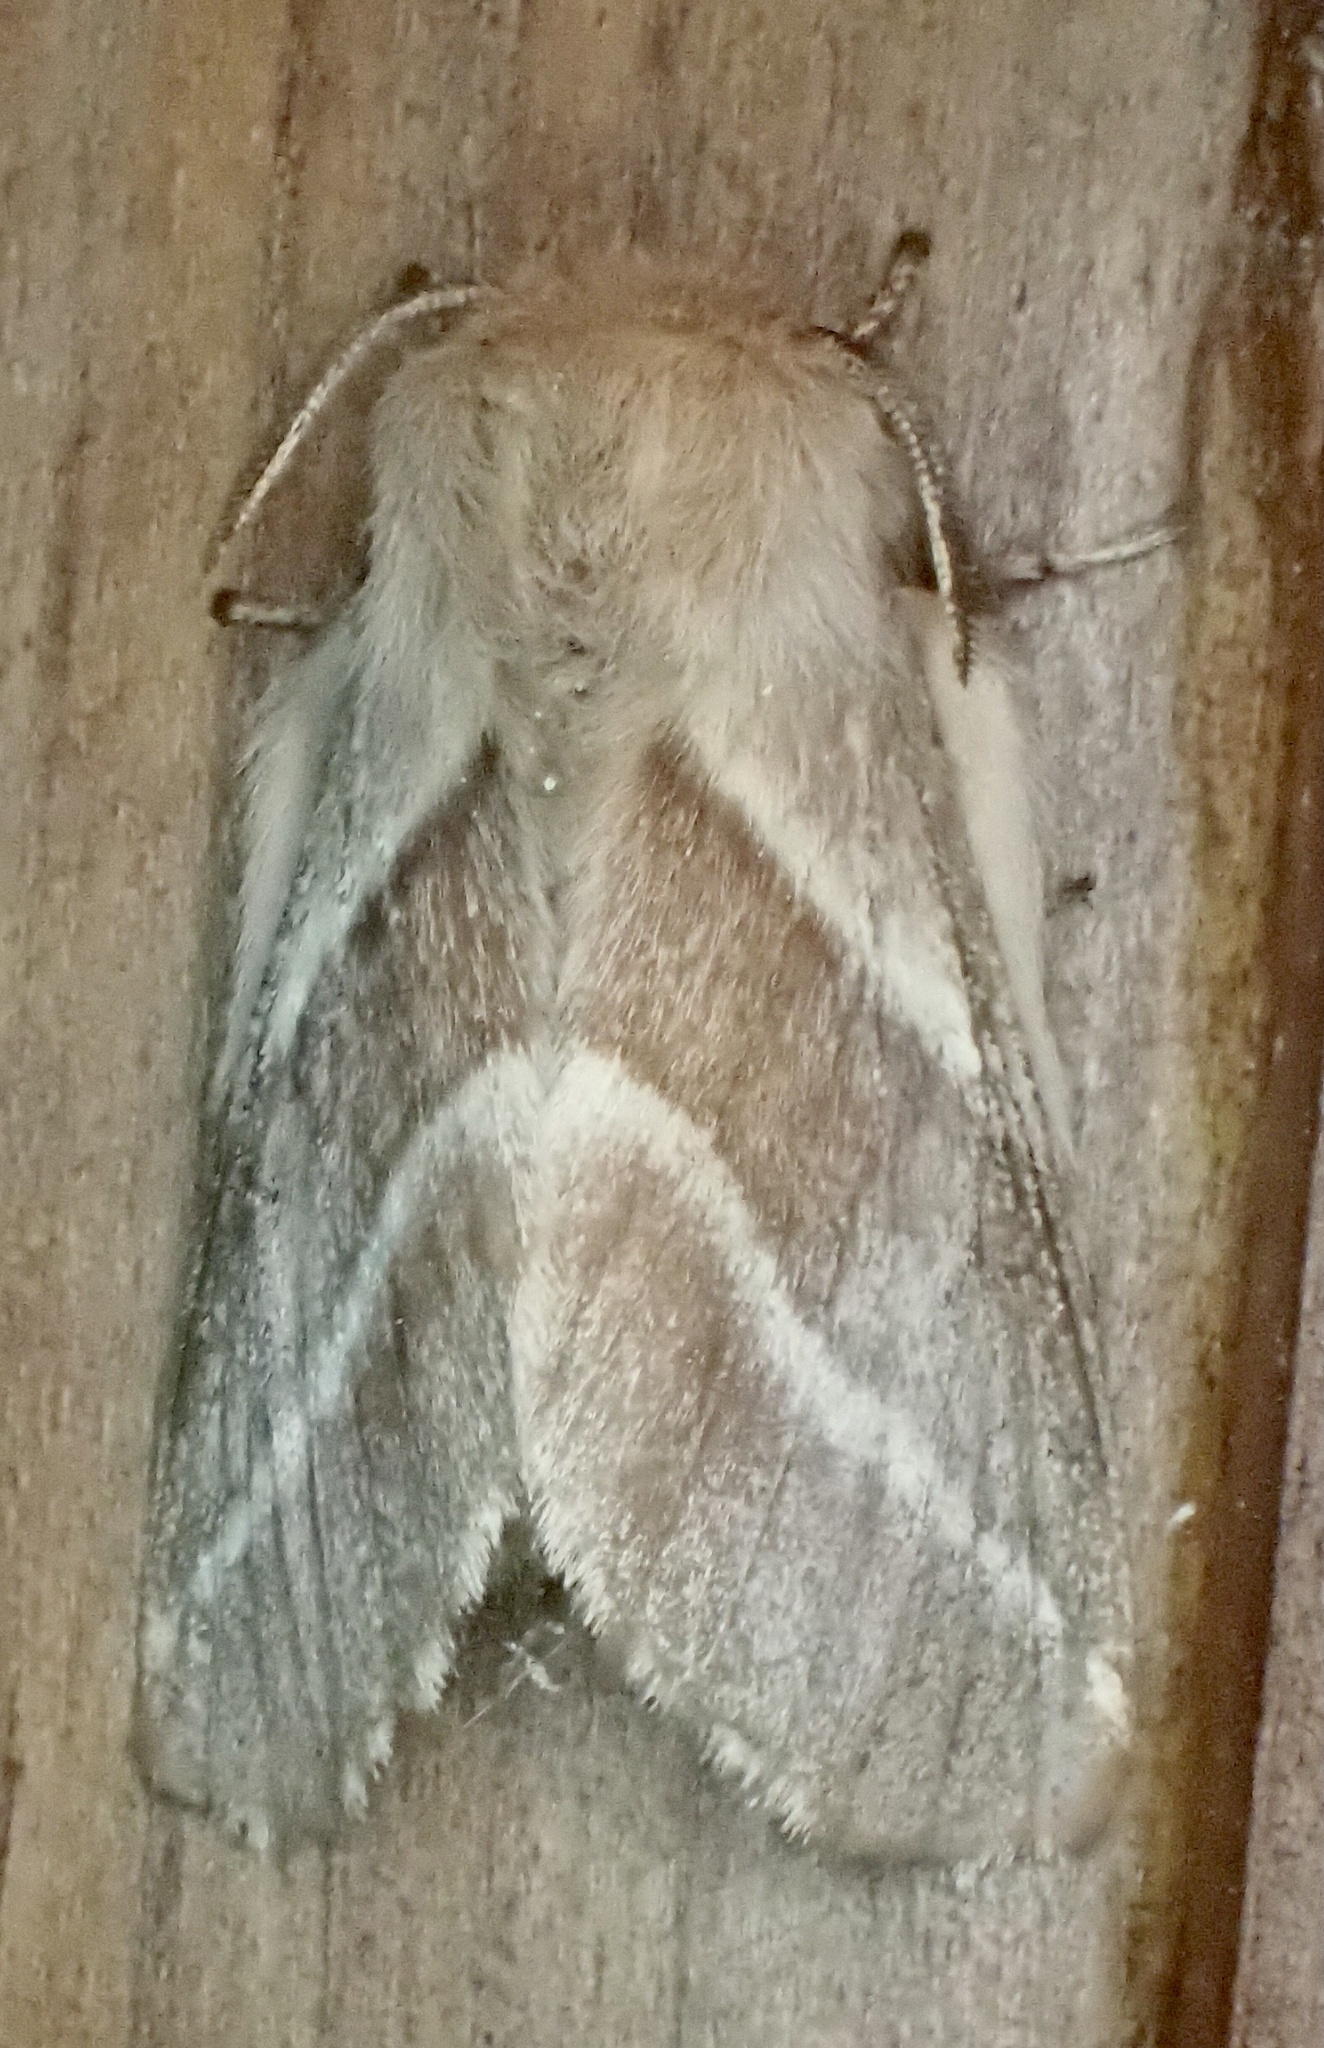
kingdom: Animalia
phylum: Arthropoda
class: Insecta
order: Lepidoptera
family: Lasiocampidae
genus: Malacosoma
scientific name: Malacosoma americana
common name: Eastern tent caterpillar moth
